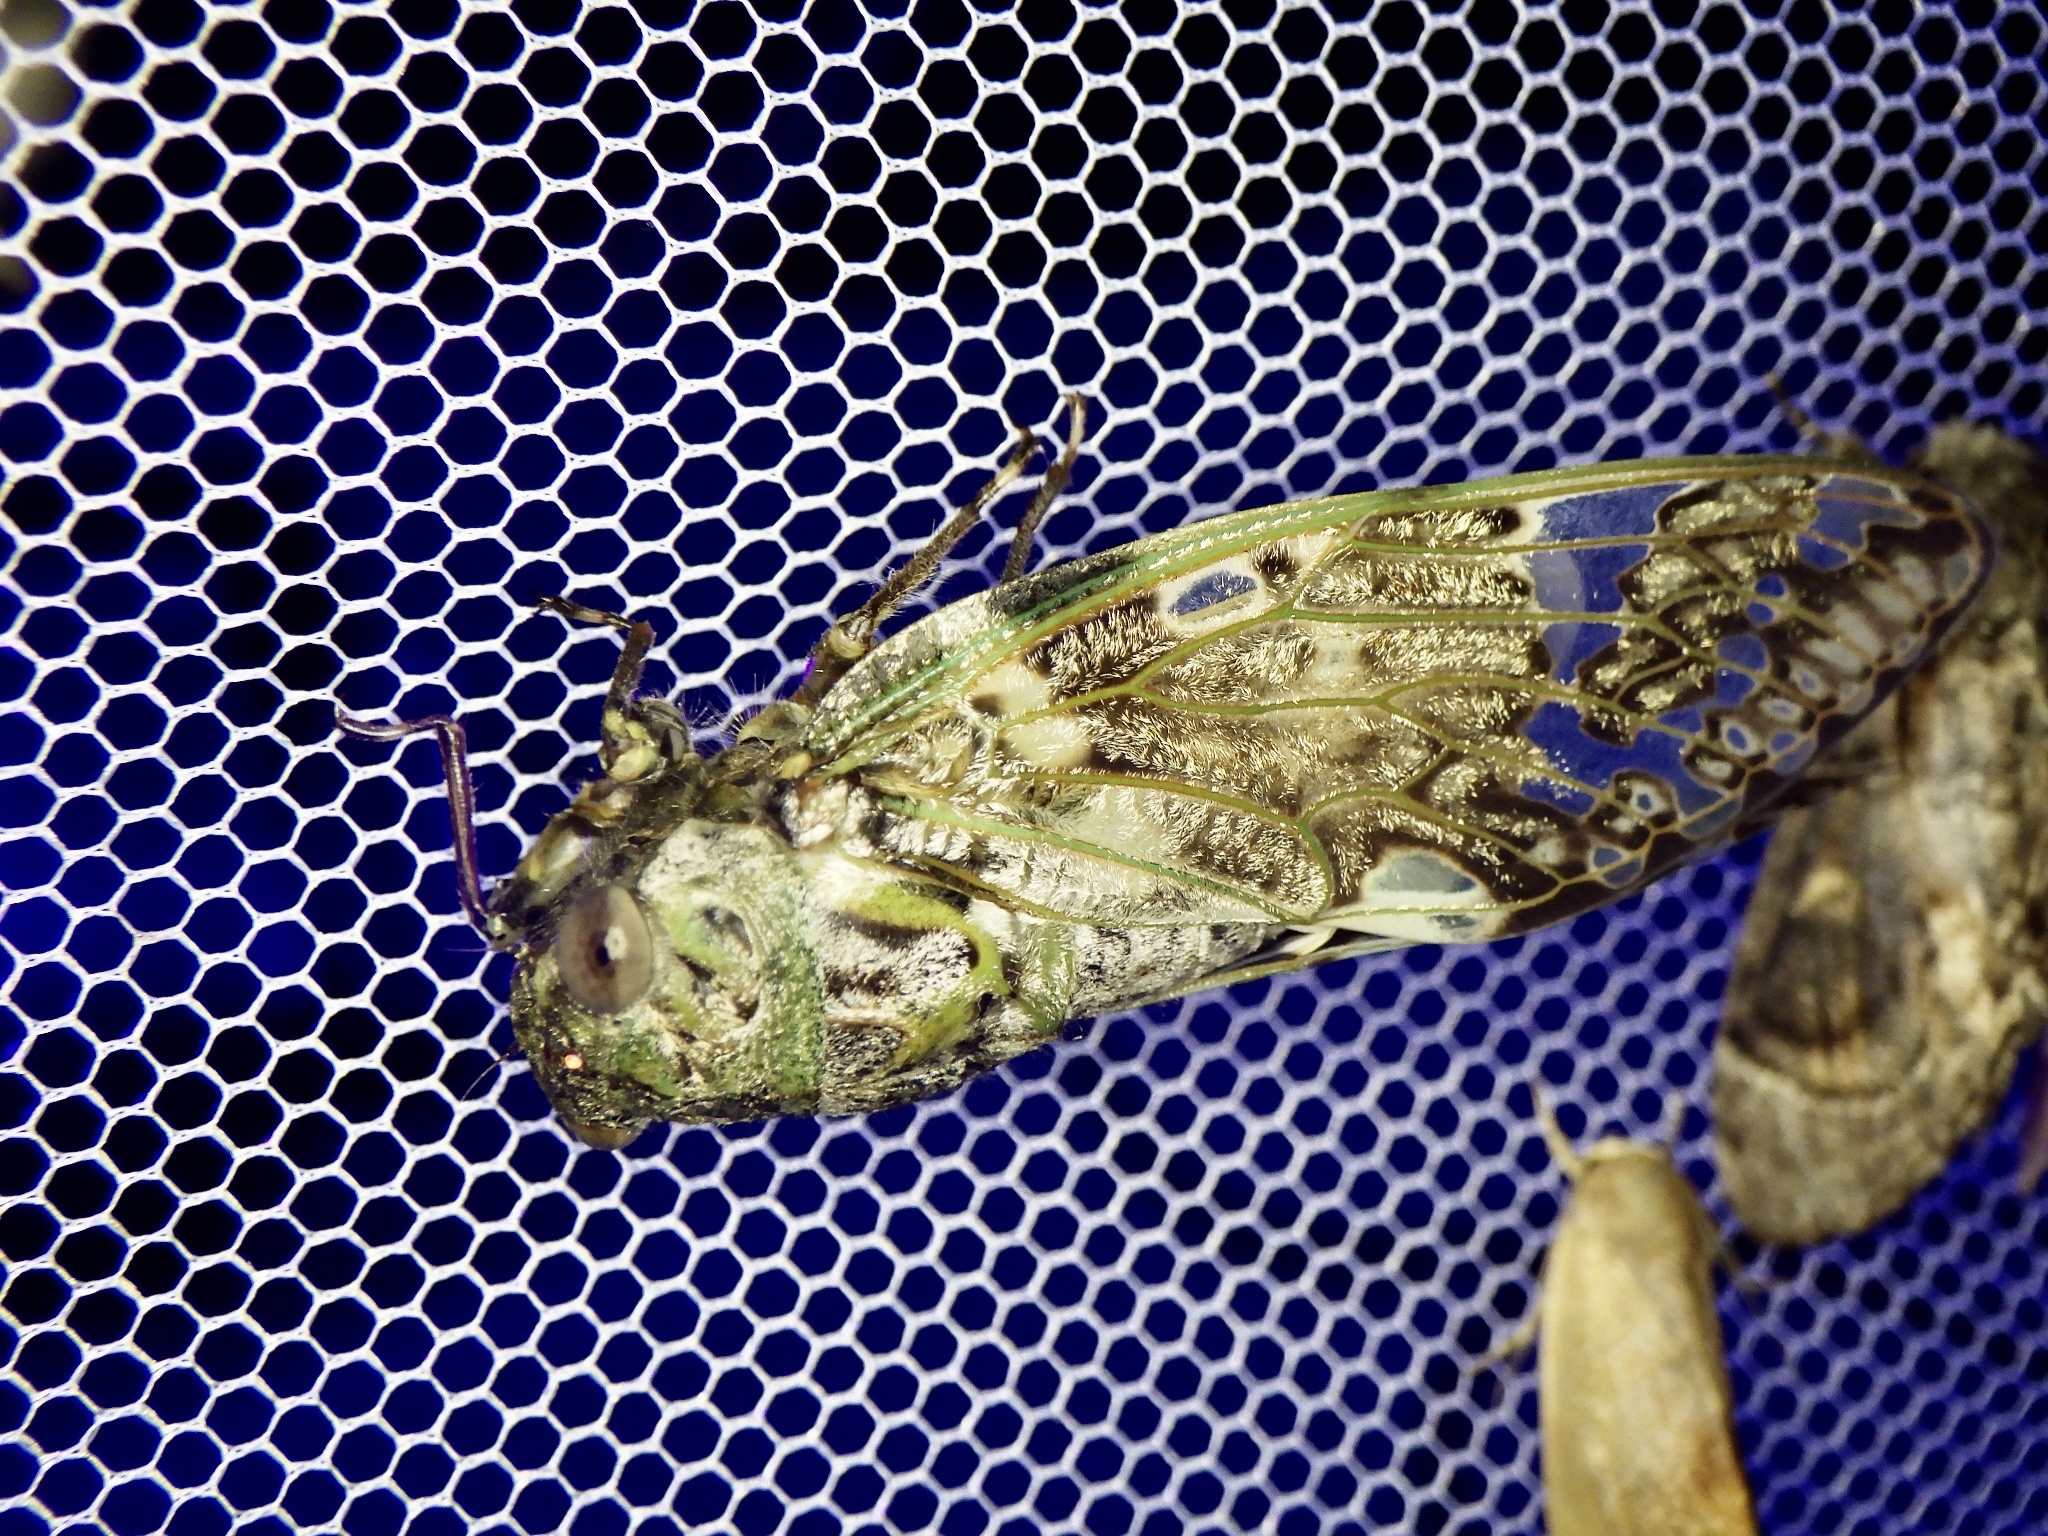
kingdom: Animalia
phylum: Arthropoda
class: Insecta
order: Hemiptera
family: Cicadidae
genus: Platypleura
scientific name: Platypleura kaempferi
